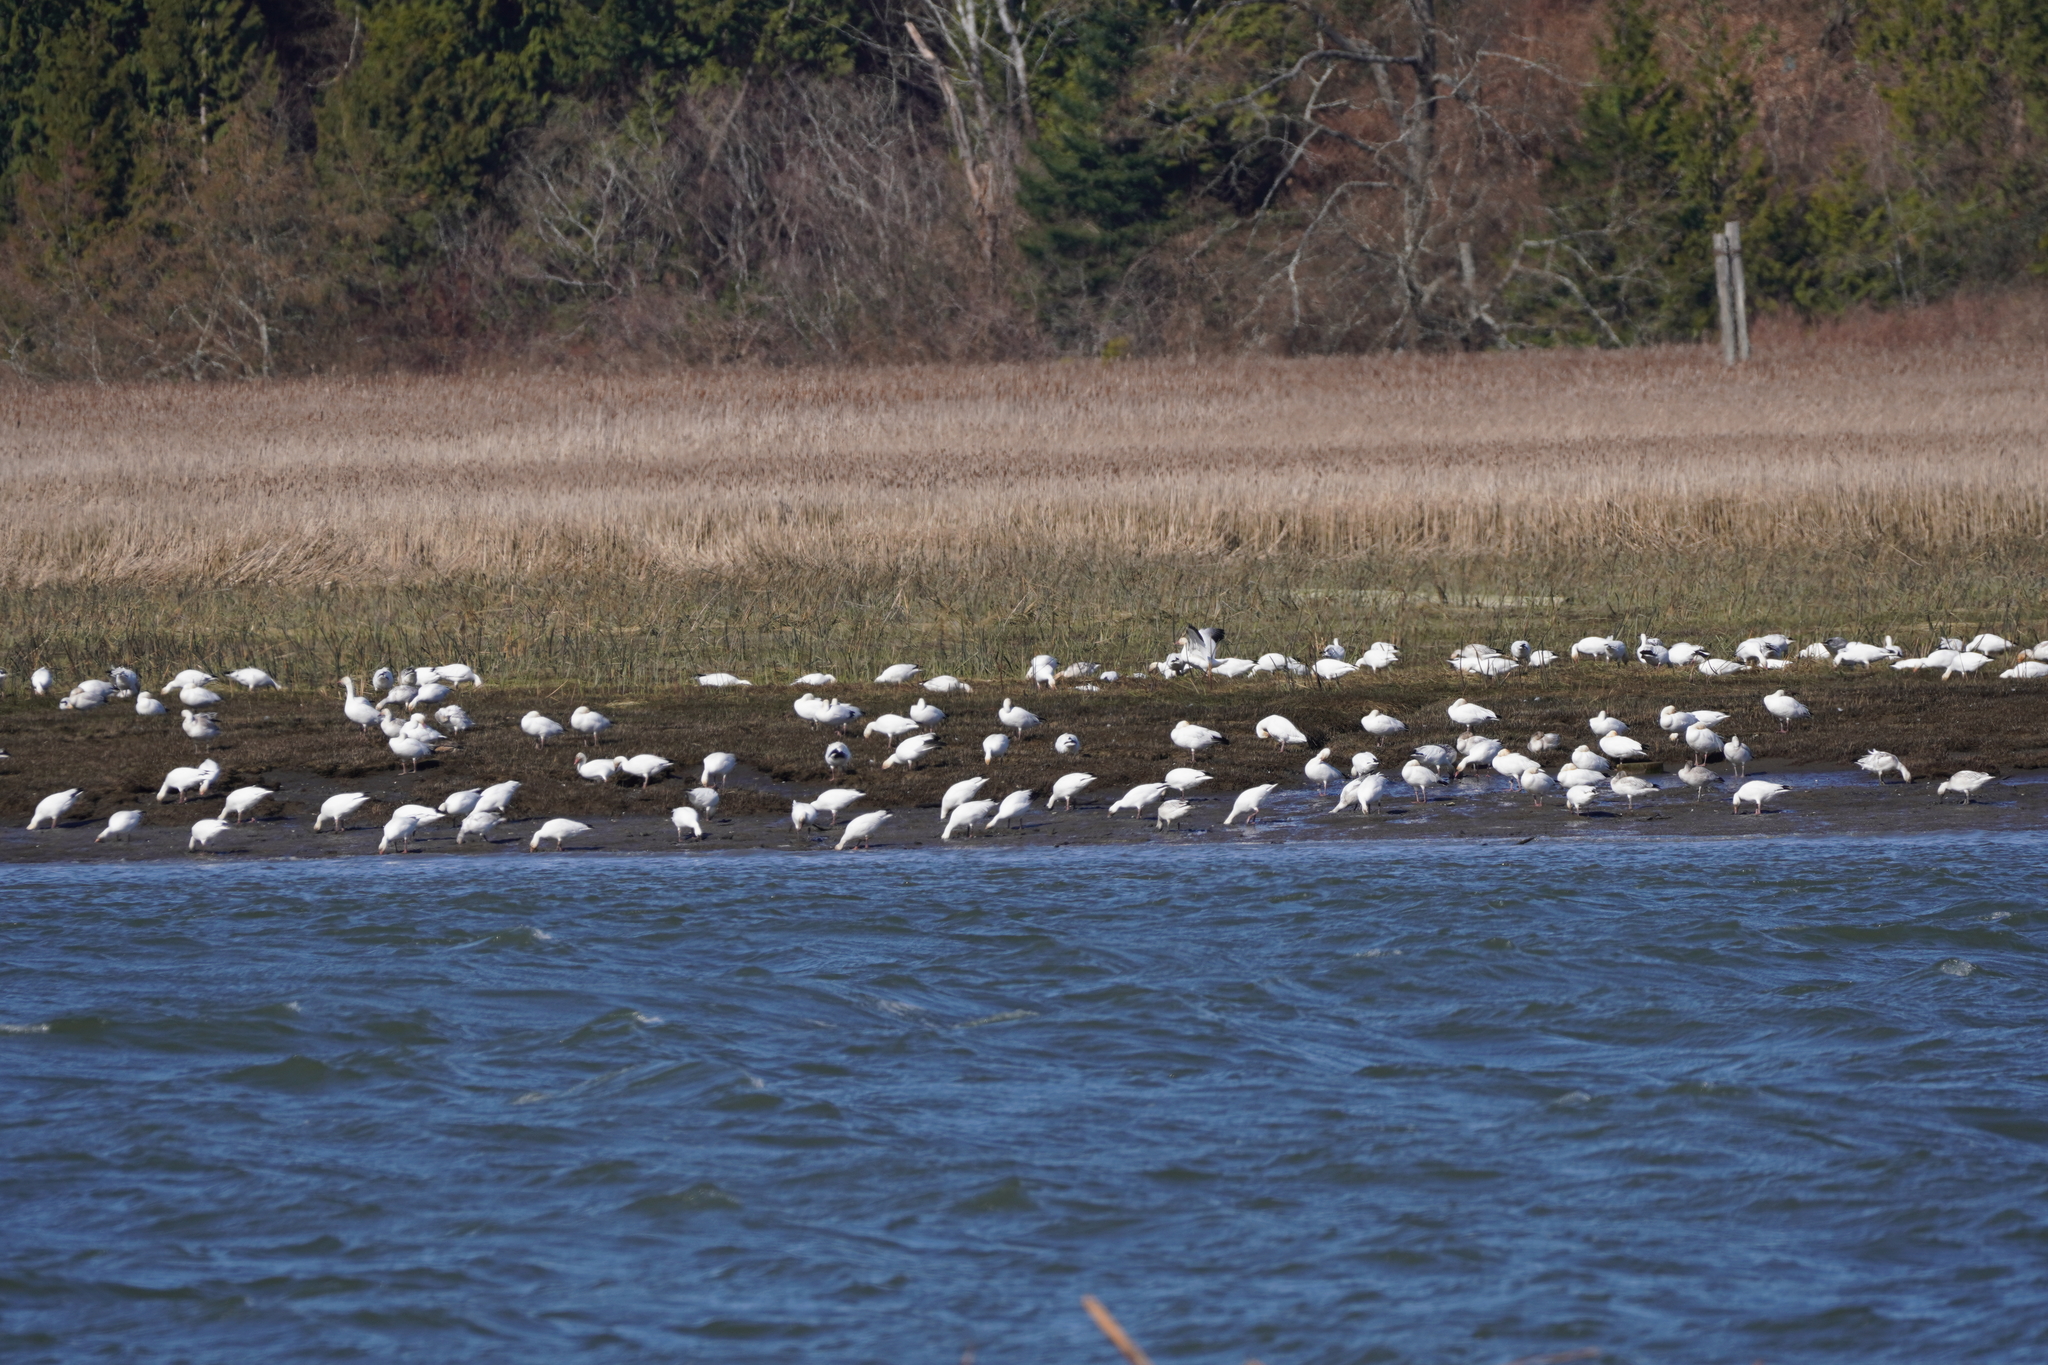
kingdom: Animalia
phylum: Chordata
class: Aves
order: Anseriformes
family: Anatidae
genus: Anser
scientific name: Anser caerulescens
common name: Snow goose
